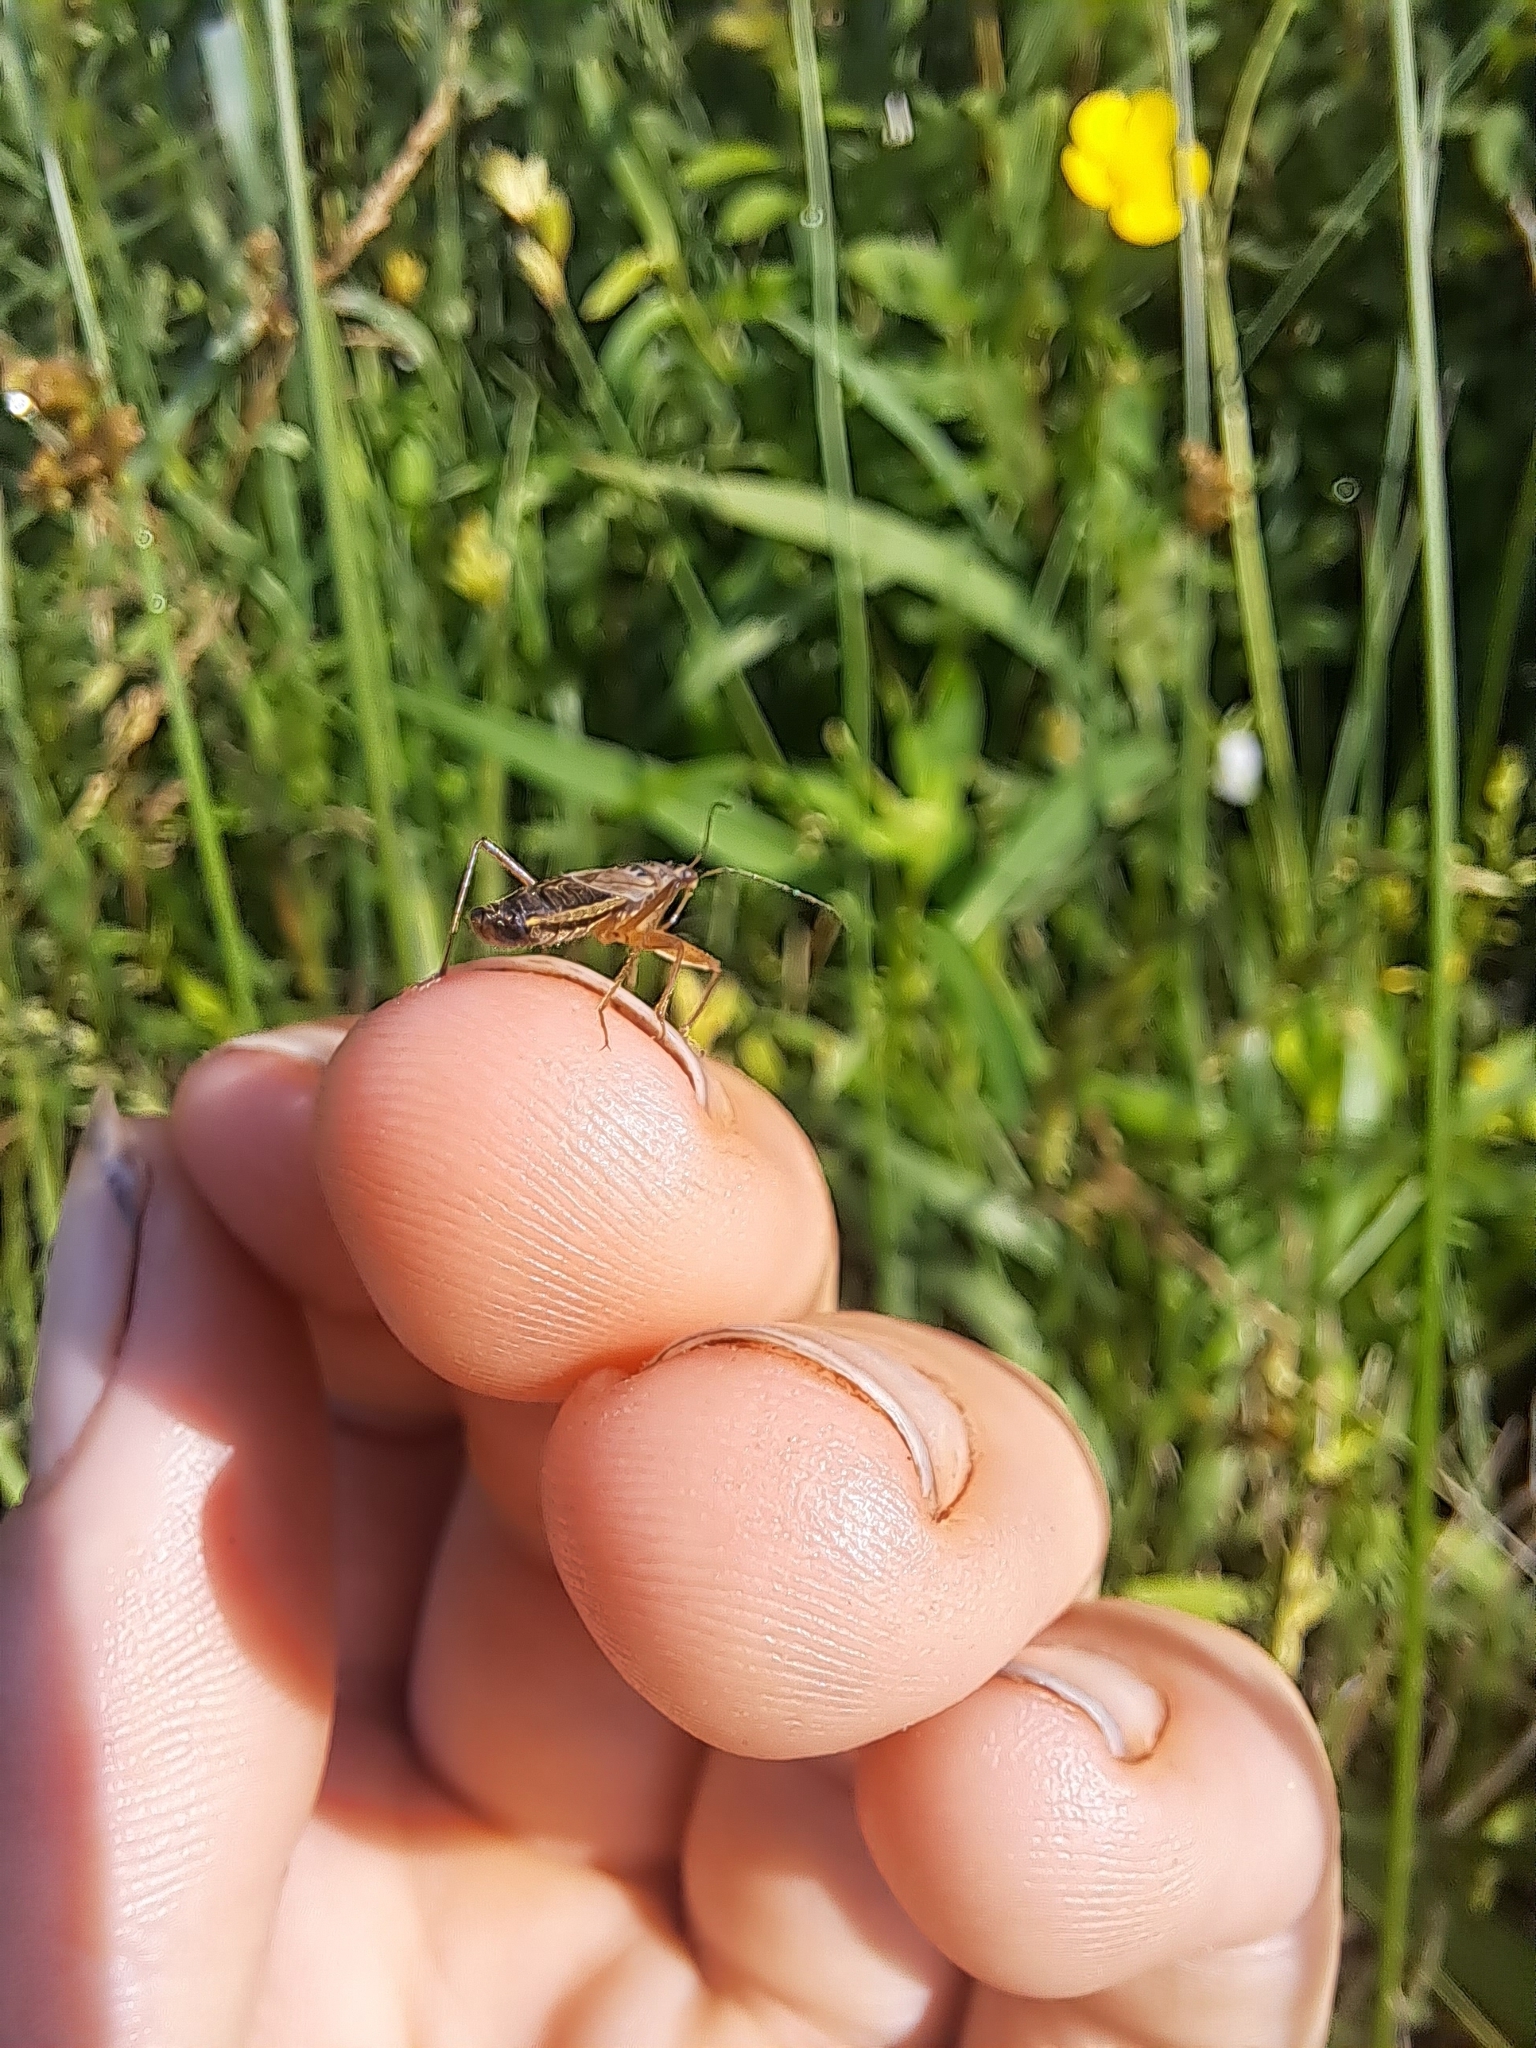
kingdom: Animalia
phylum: Arthropoda
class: Insecta
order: Hemiptera
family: Nabidae
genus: Nabis
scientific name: Nabis flavomarginatus
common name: Broad damselbug
